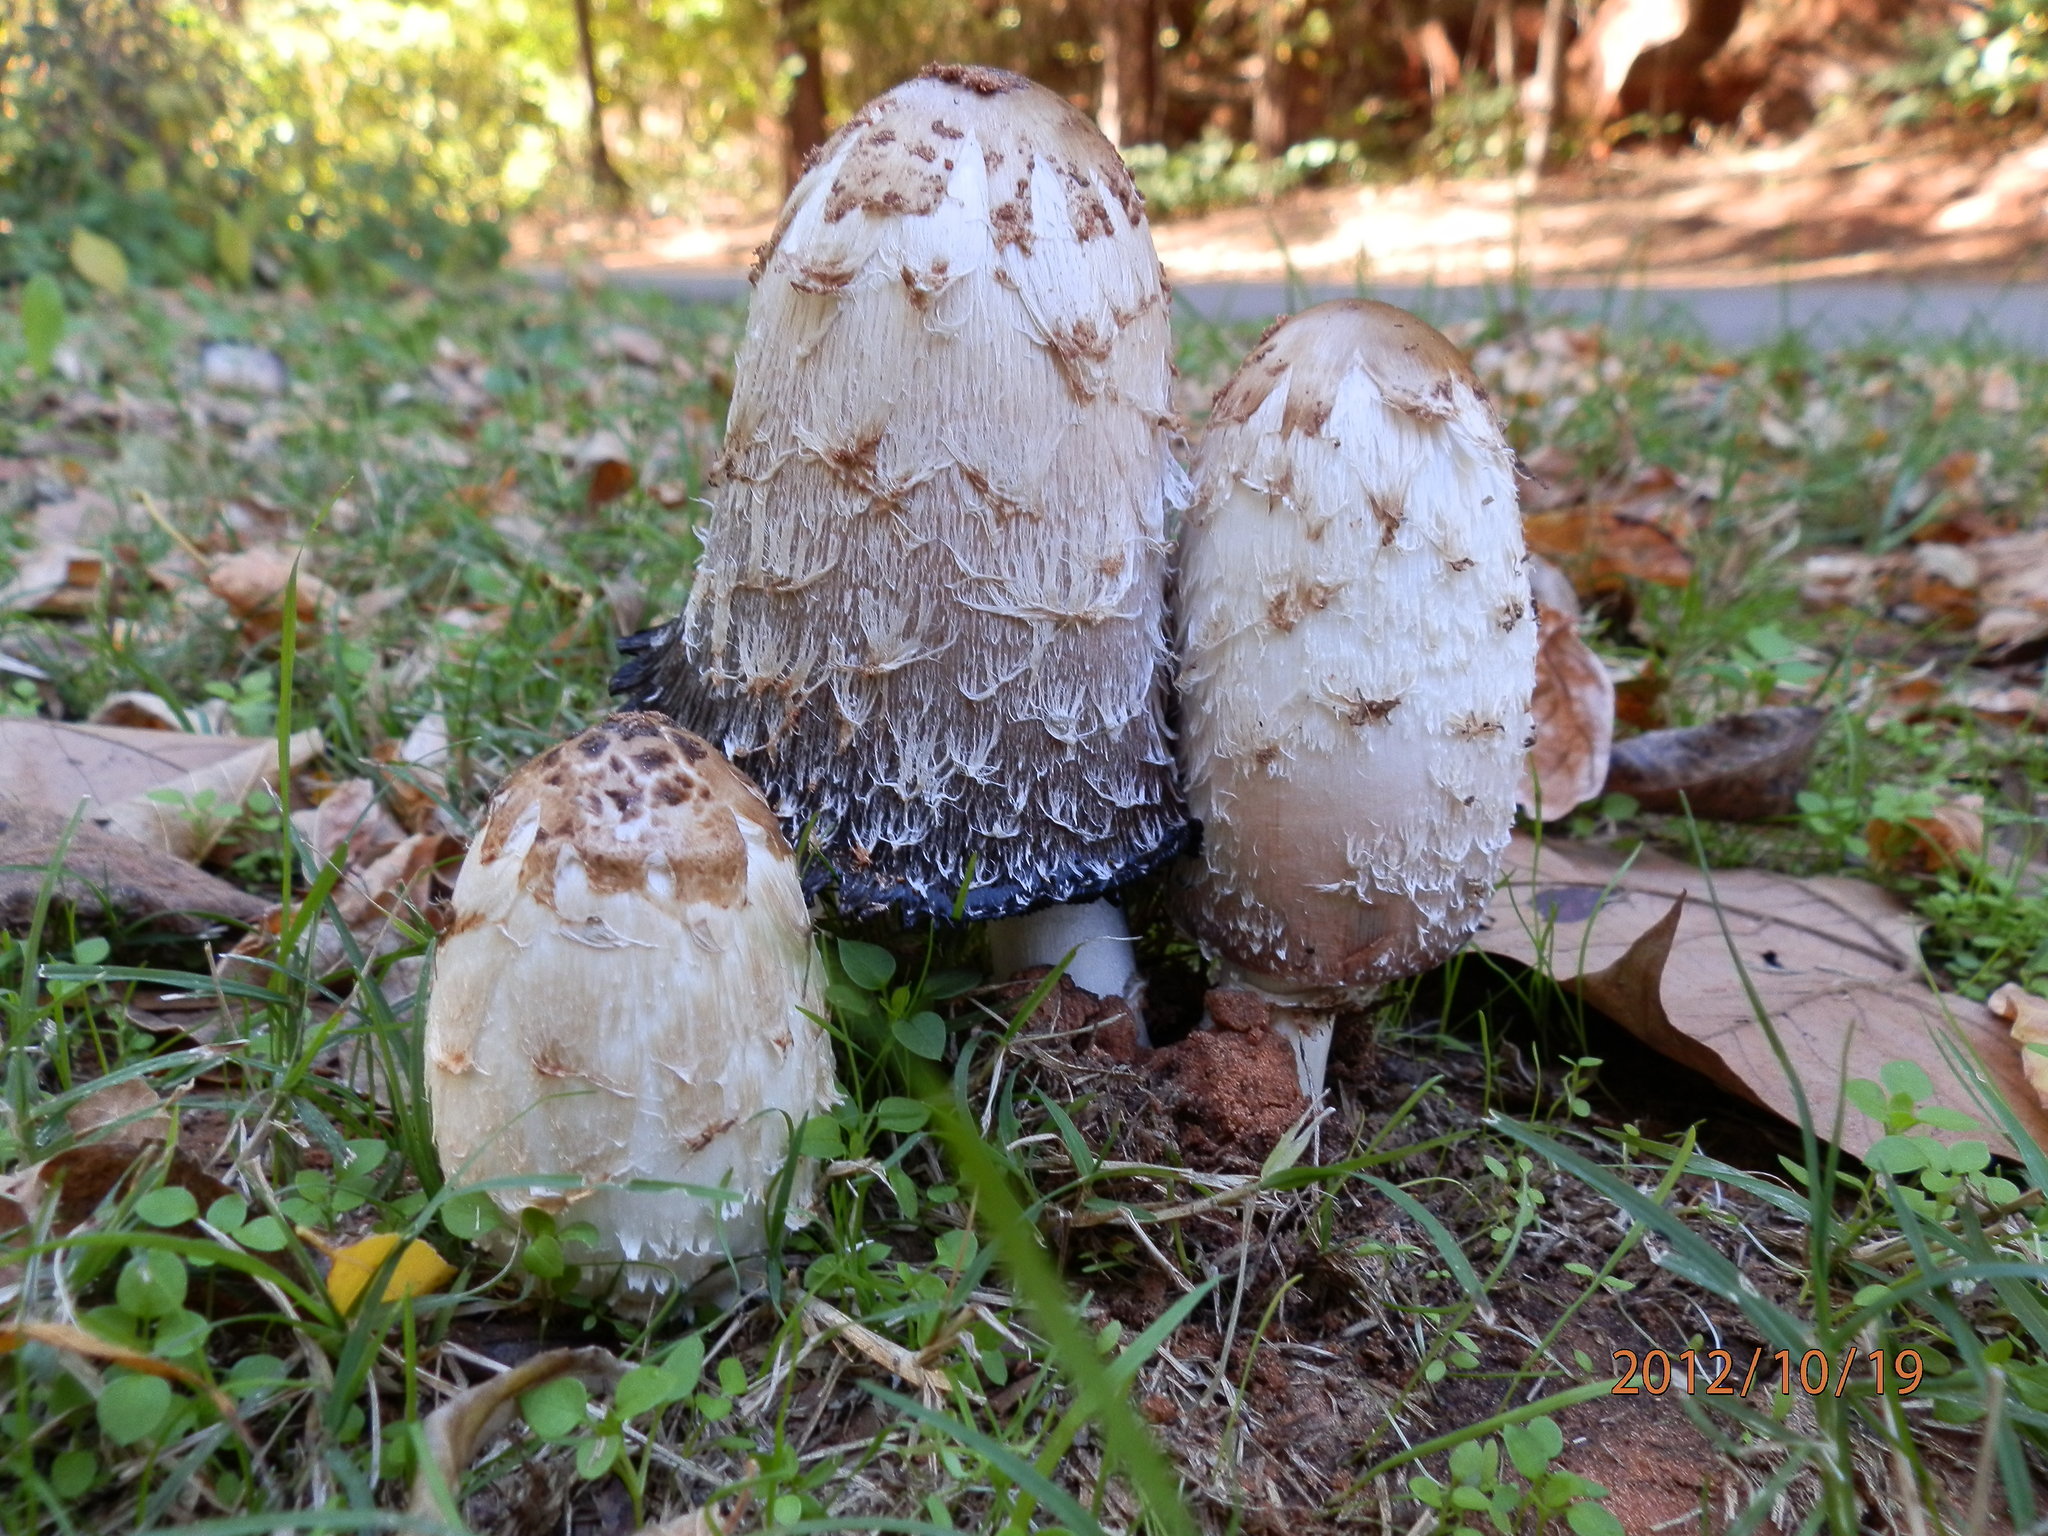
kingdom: Fungi
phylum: Basidiomycota
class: Agaricomycetes
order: Agaricales
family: Agaricaceae
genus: Coprinus
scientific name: Coprinus comatus
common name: Lawyer's wig
